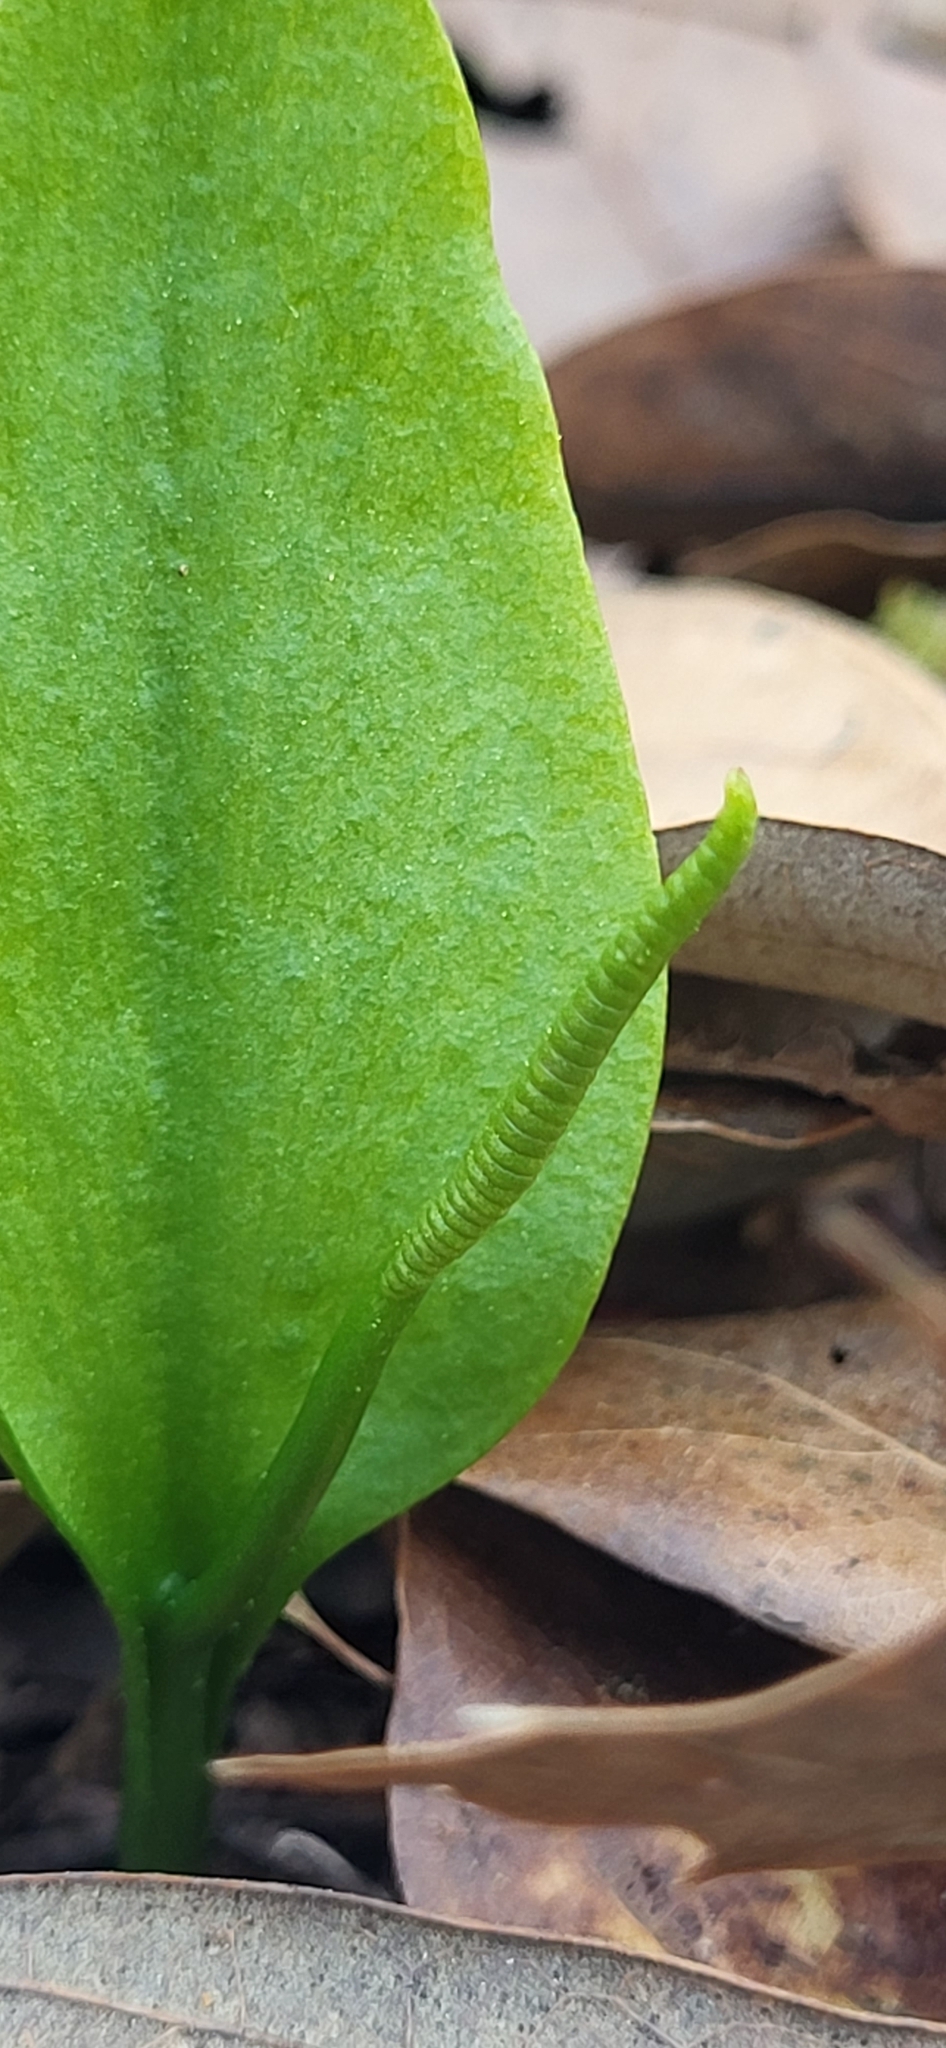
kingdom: Plantae
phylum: Tracheophyta
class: Polypodiopsida
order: Ophioglossales
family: Ophioglossaceae
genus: Ophioglossum
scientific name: Ophioglossum vulgatum
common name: Adder's-tongue
